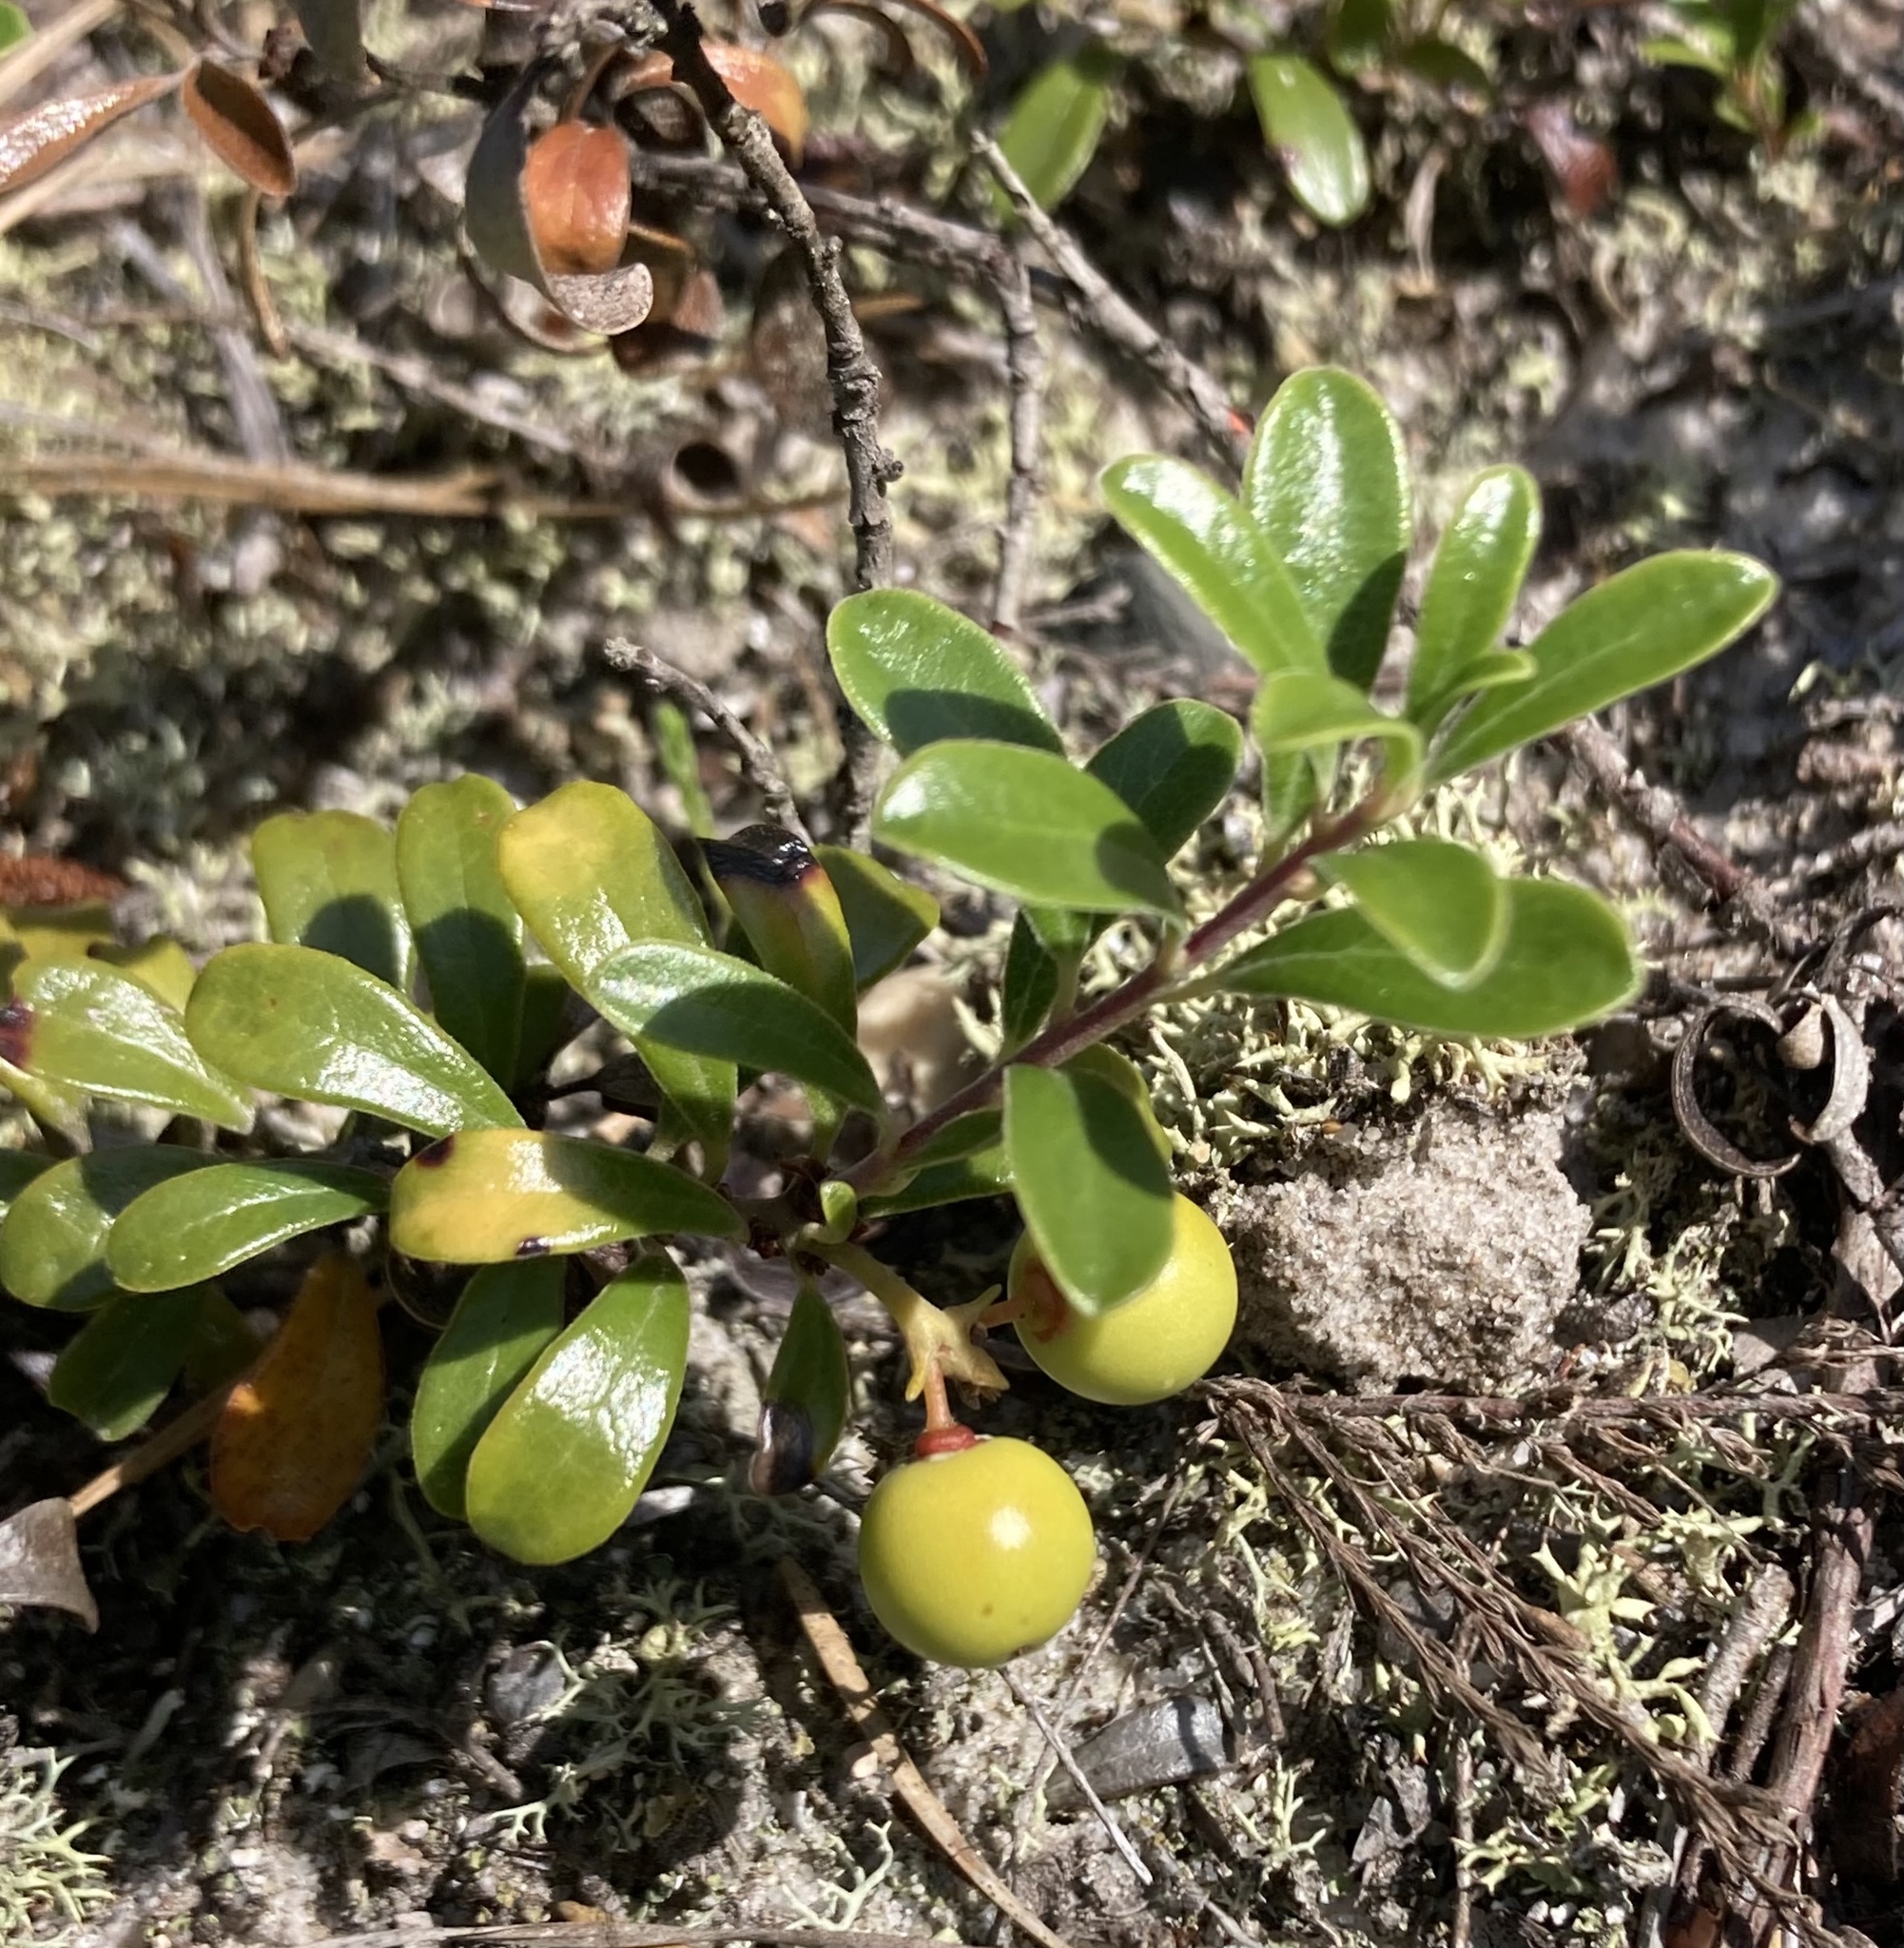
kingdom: Plantae
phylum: Tracheophyta
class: Magnoliopsida
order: Ericales
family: Ericaceae
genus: Arctostaphylos
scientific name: Arctostaphylos uva-ursi
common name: Bearberry
